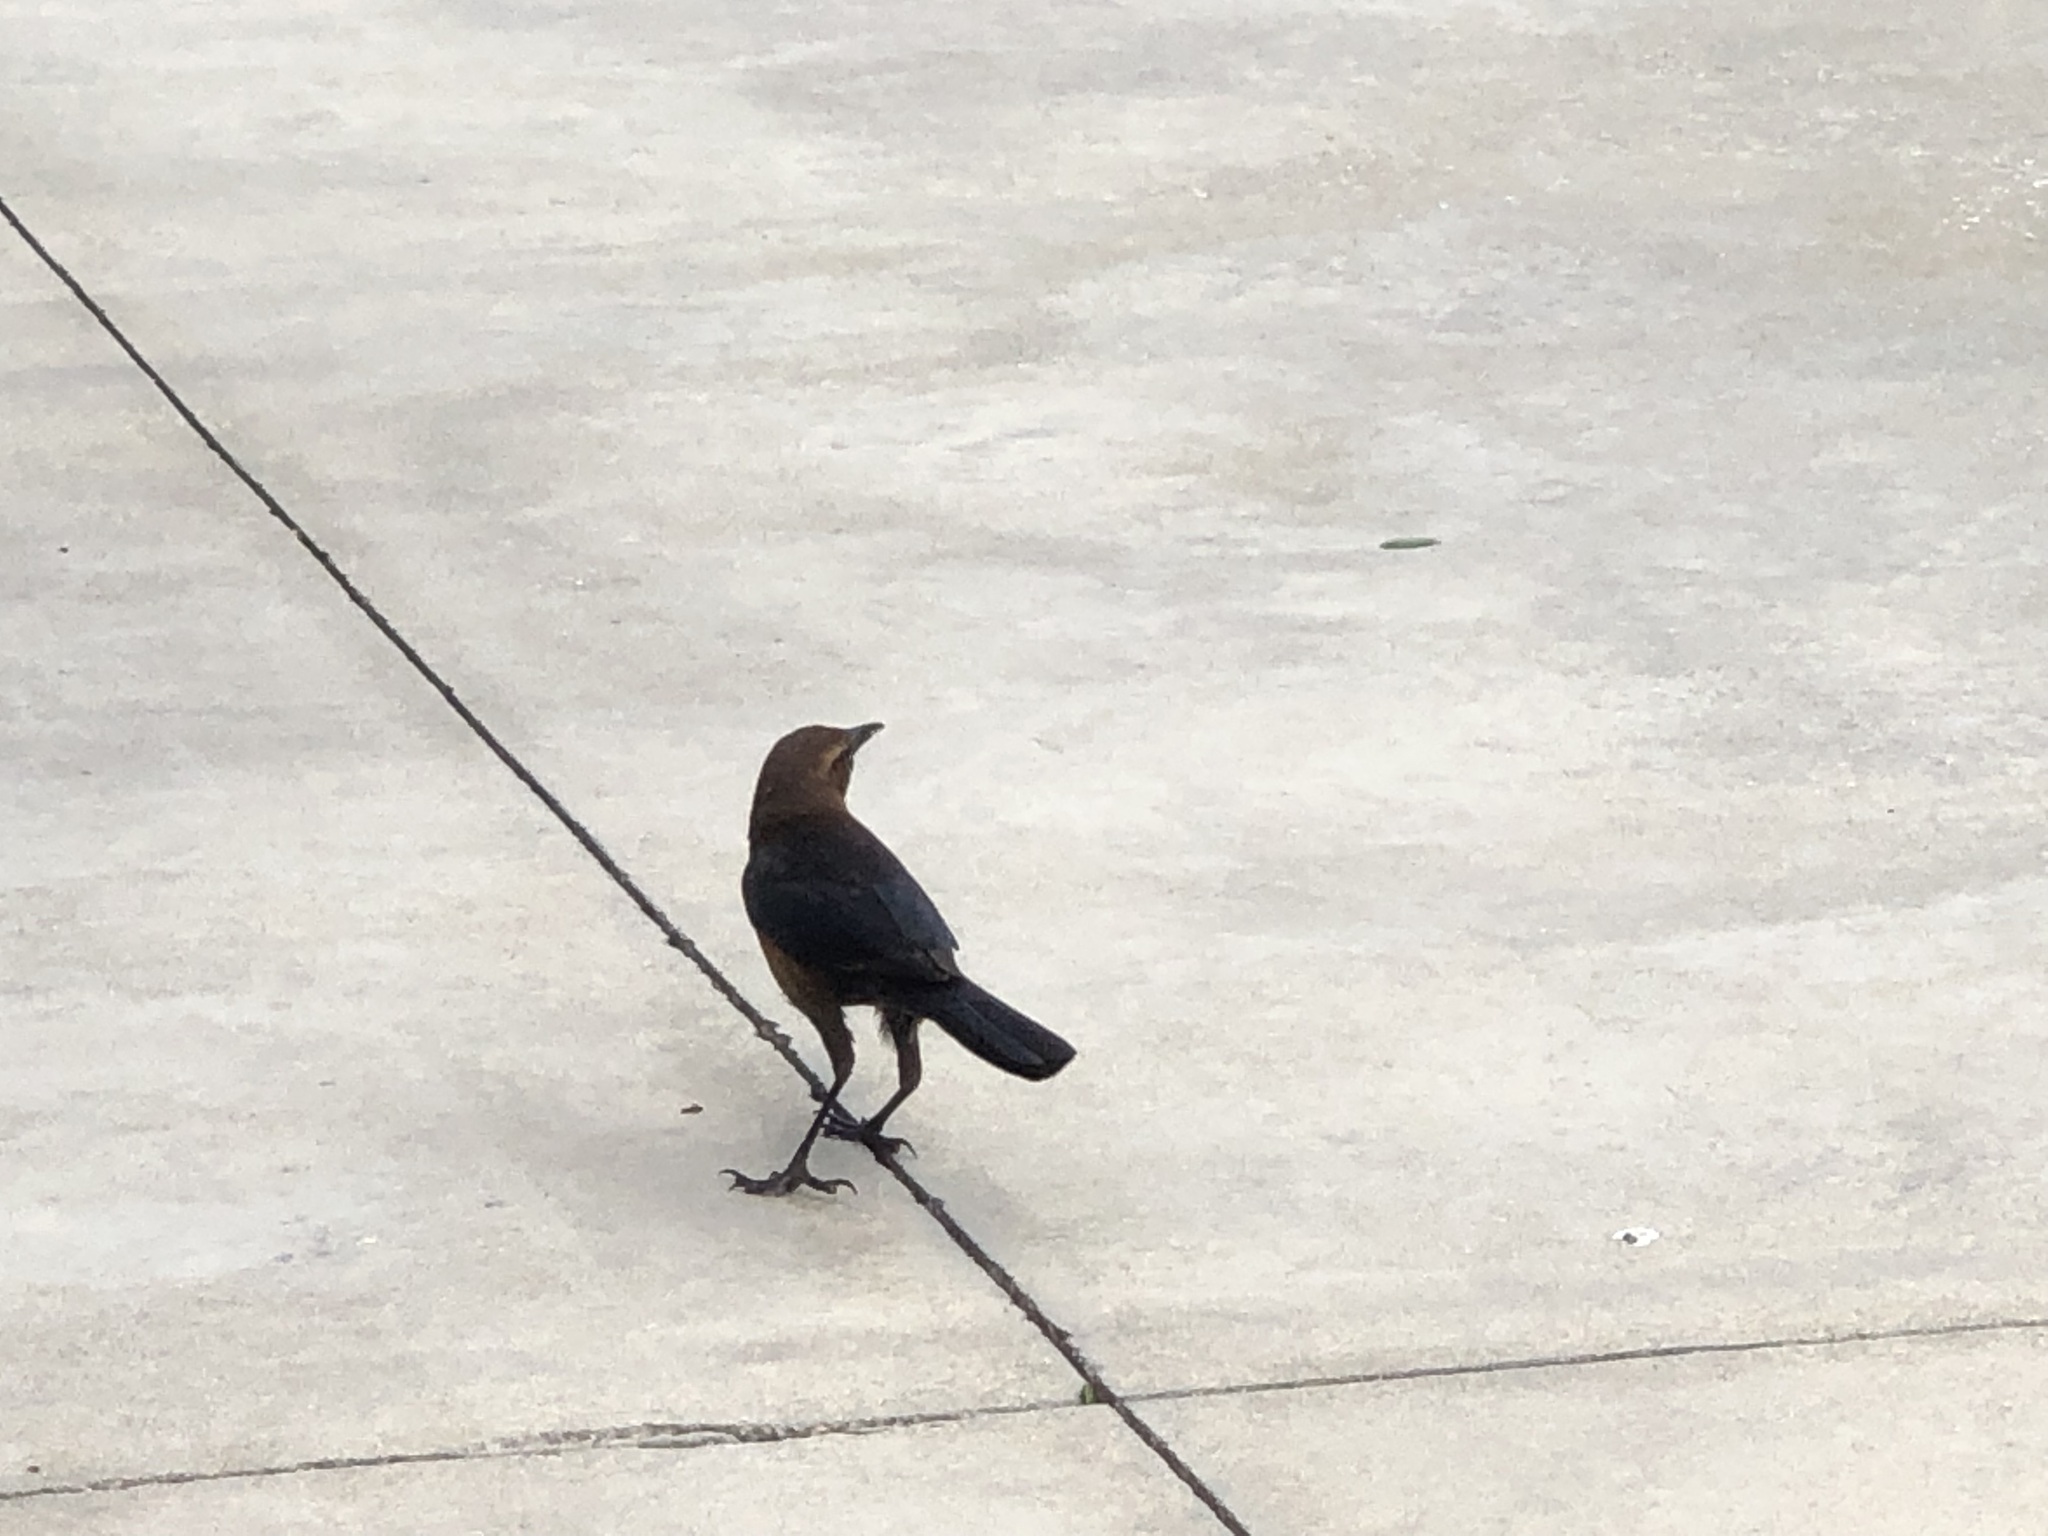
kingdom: Animalia
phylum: Chordata
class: Aves
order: Passeriformes
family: Icteridae
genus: Quiscalus
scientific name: Quiscalus major
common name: Boat-tailed grackle
